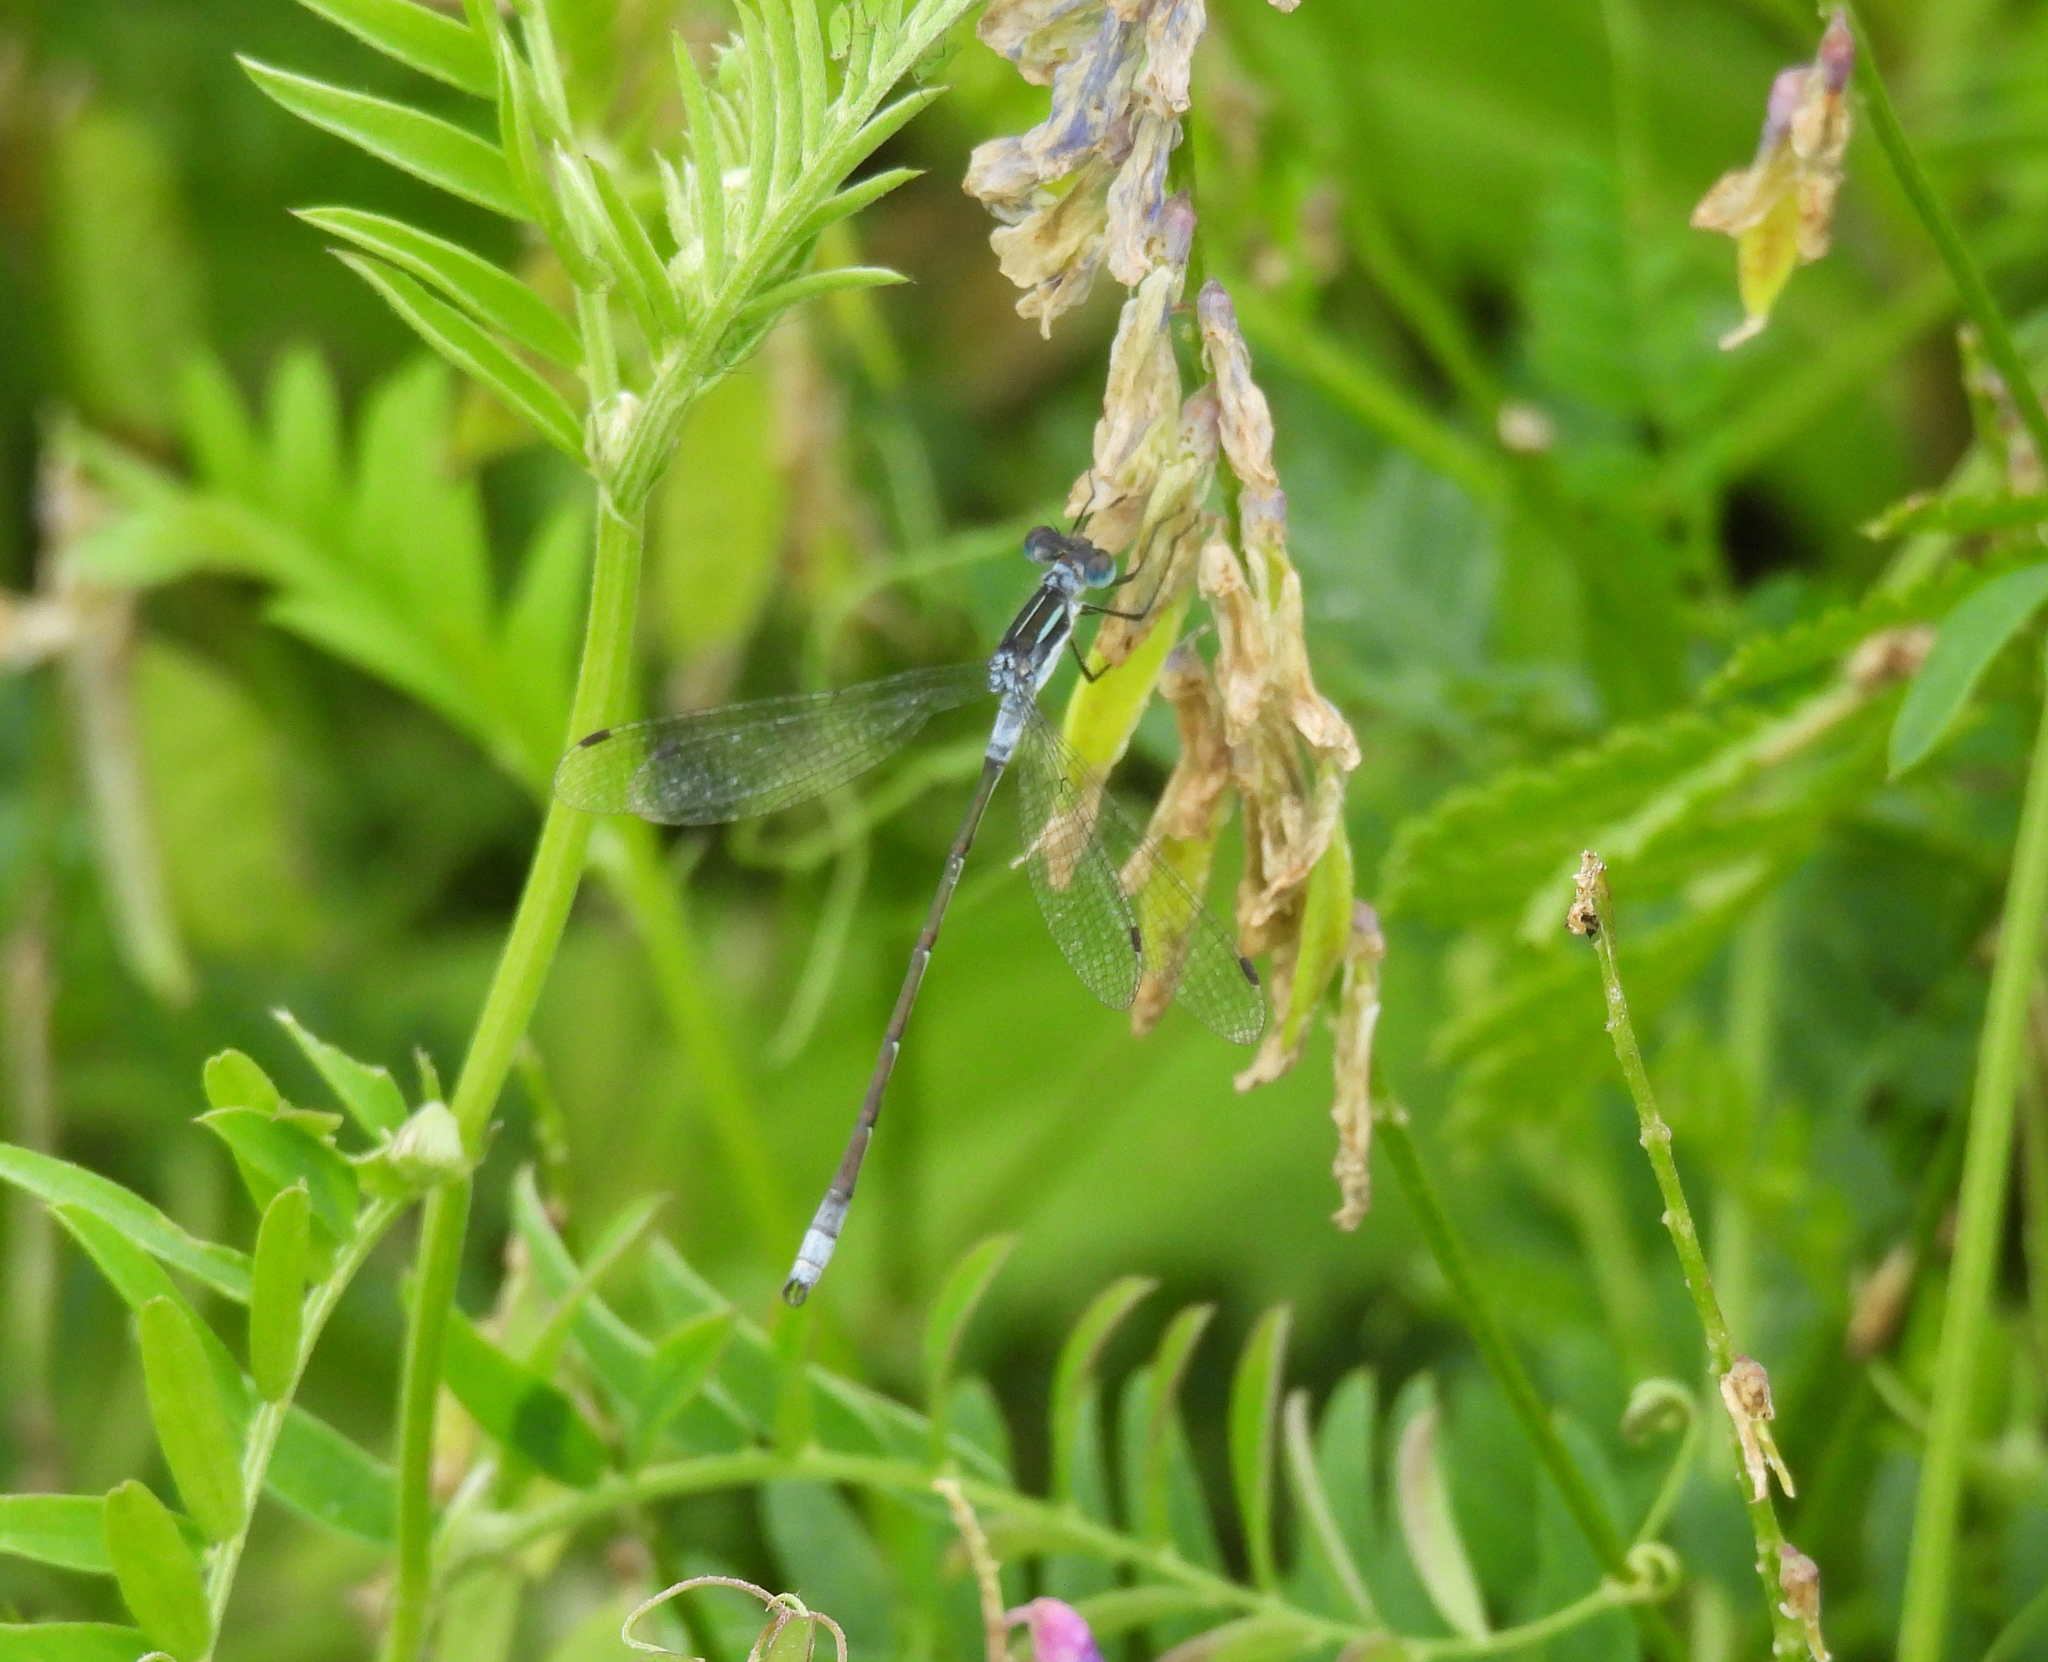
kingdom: Animalia
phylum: Arthropoda
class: Insecta
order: Odonata
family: Lestidae
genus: Lestes
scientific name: Lestes disjunctus
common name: Northern spreadwing
